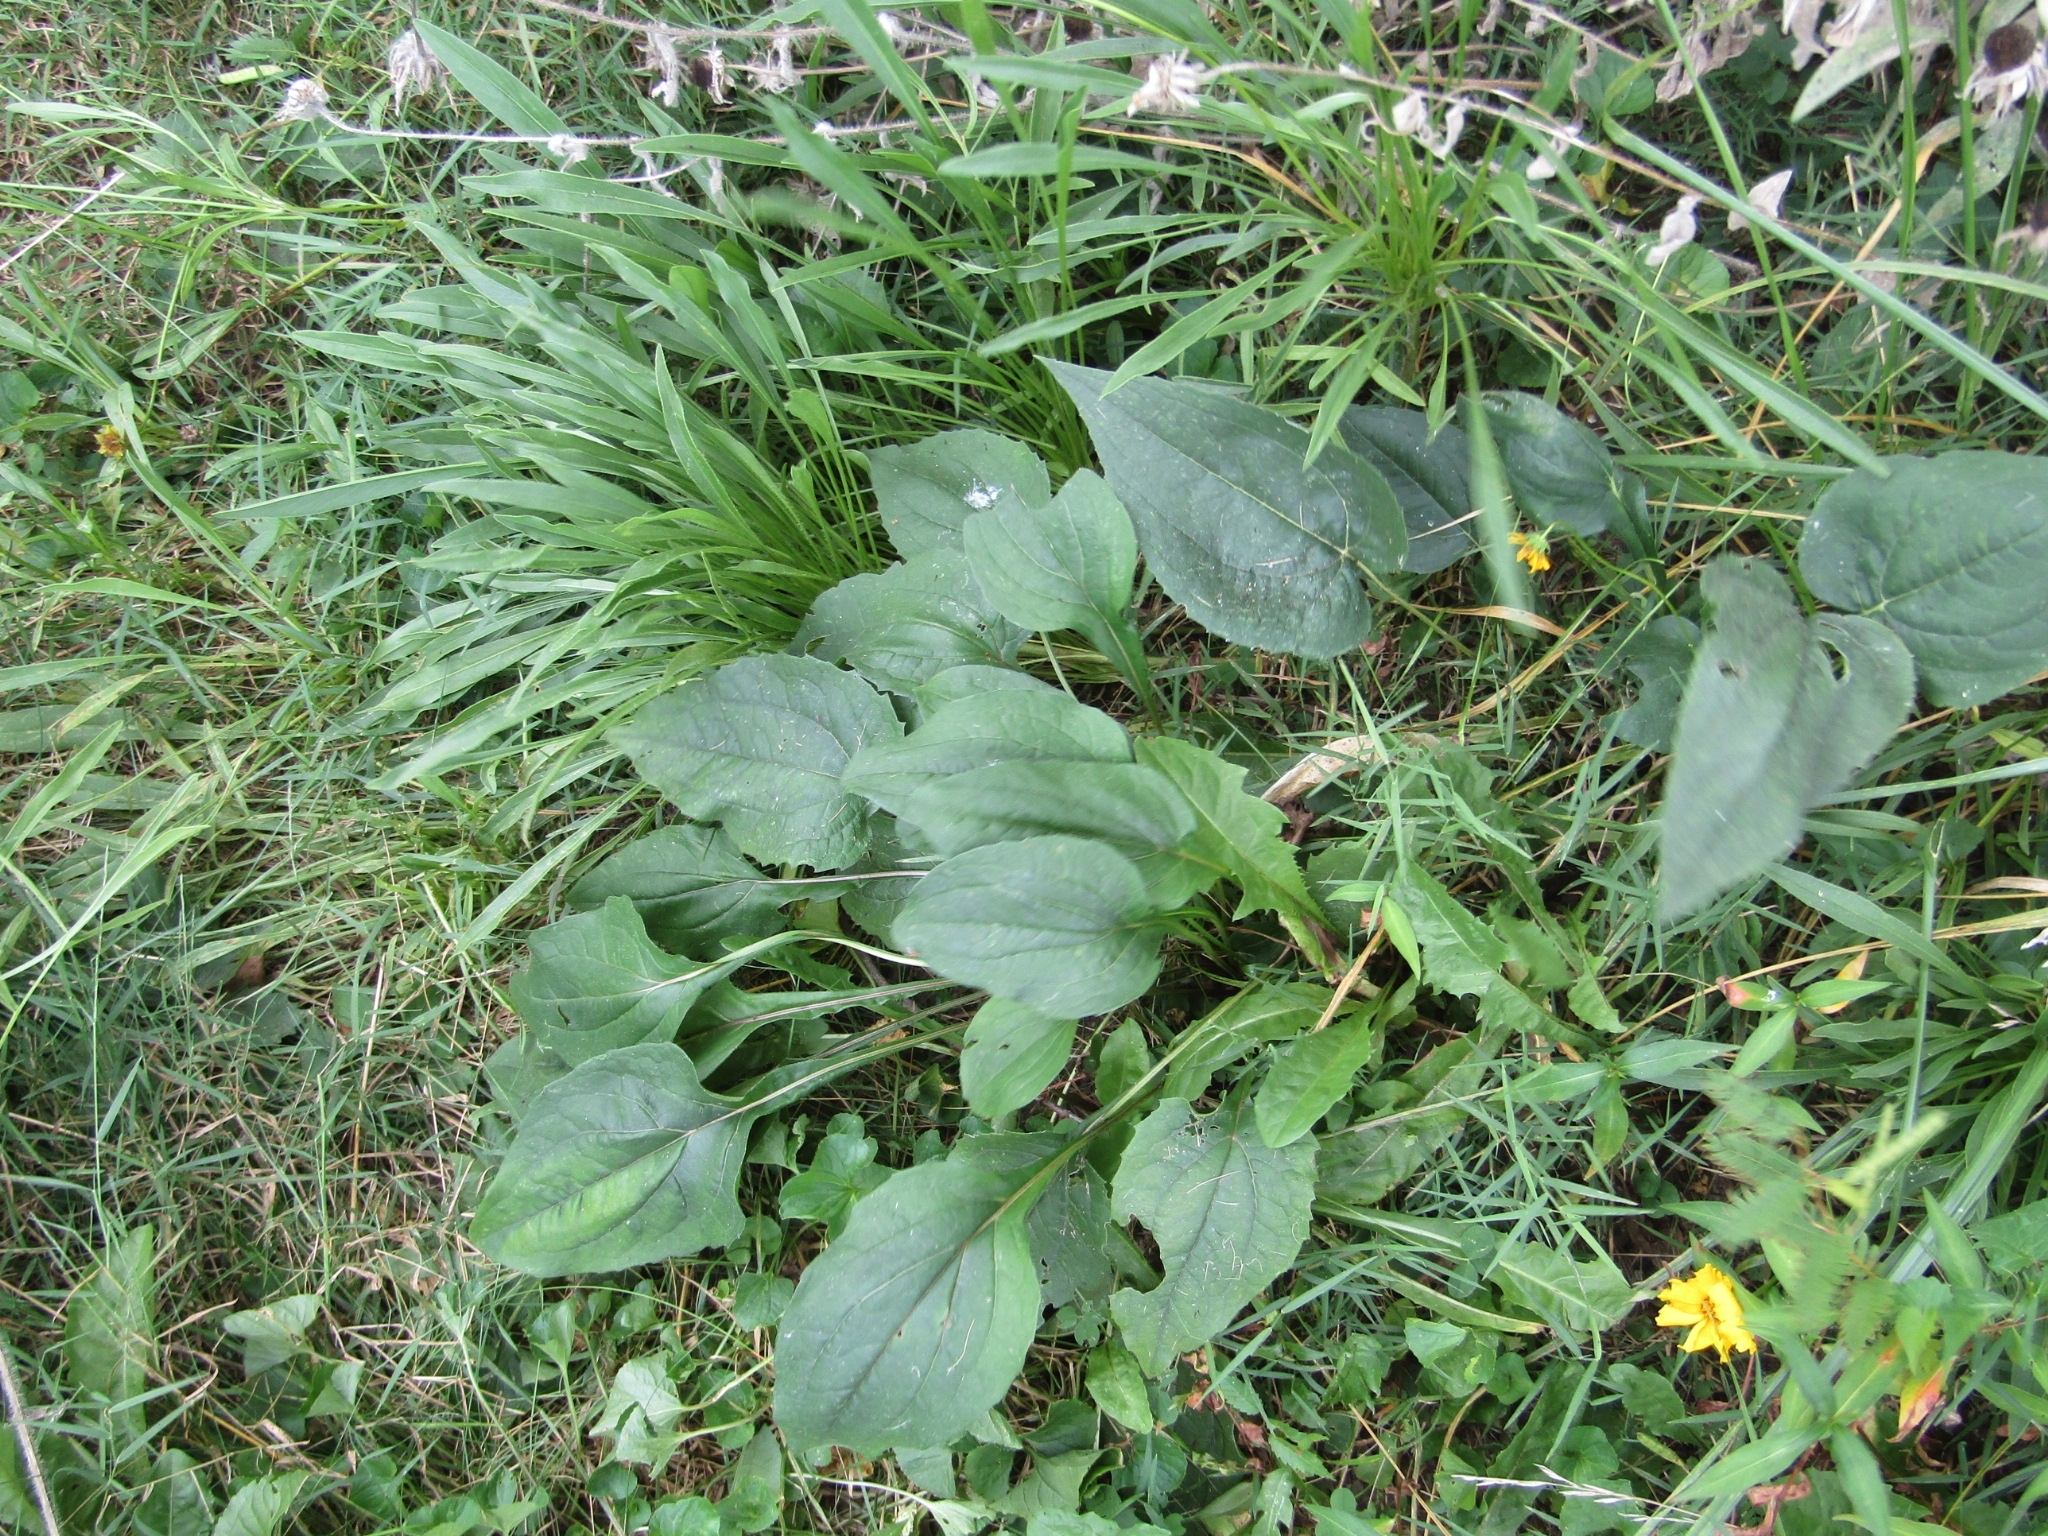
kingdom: Plantae
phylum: Tracheophyta
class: Magnoliopsida
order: Lamiales
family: Plantaginaceae
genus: Plantago
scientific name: Plantago major
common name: Common plantain
